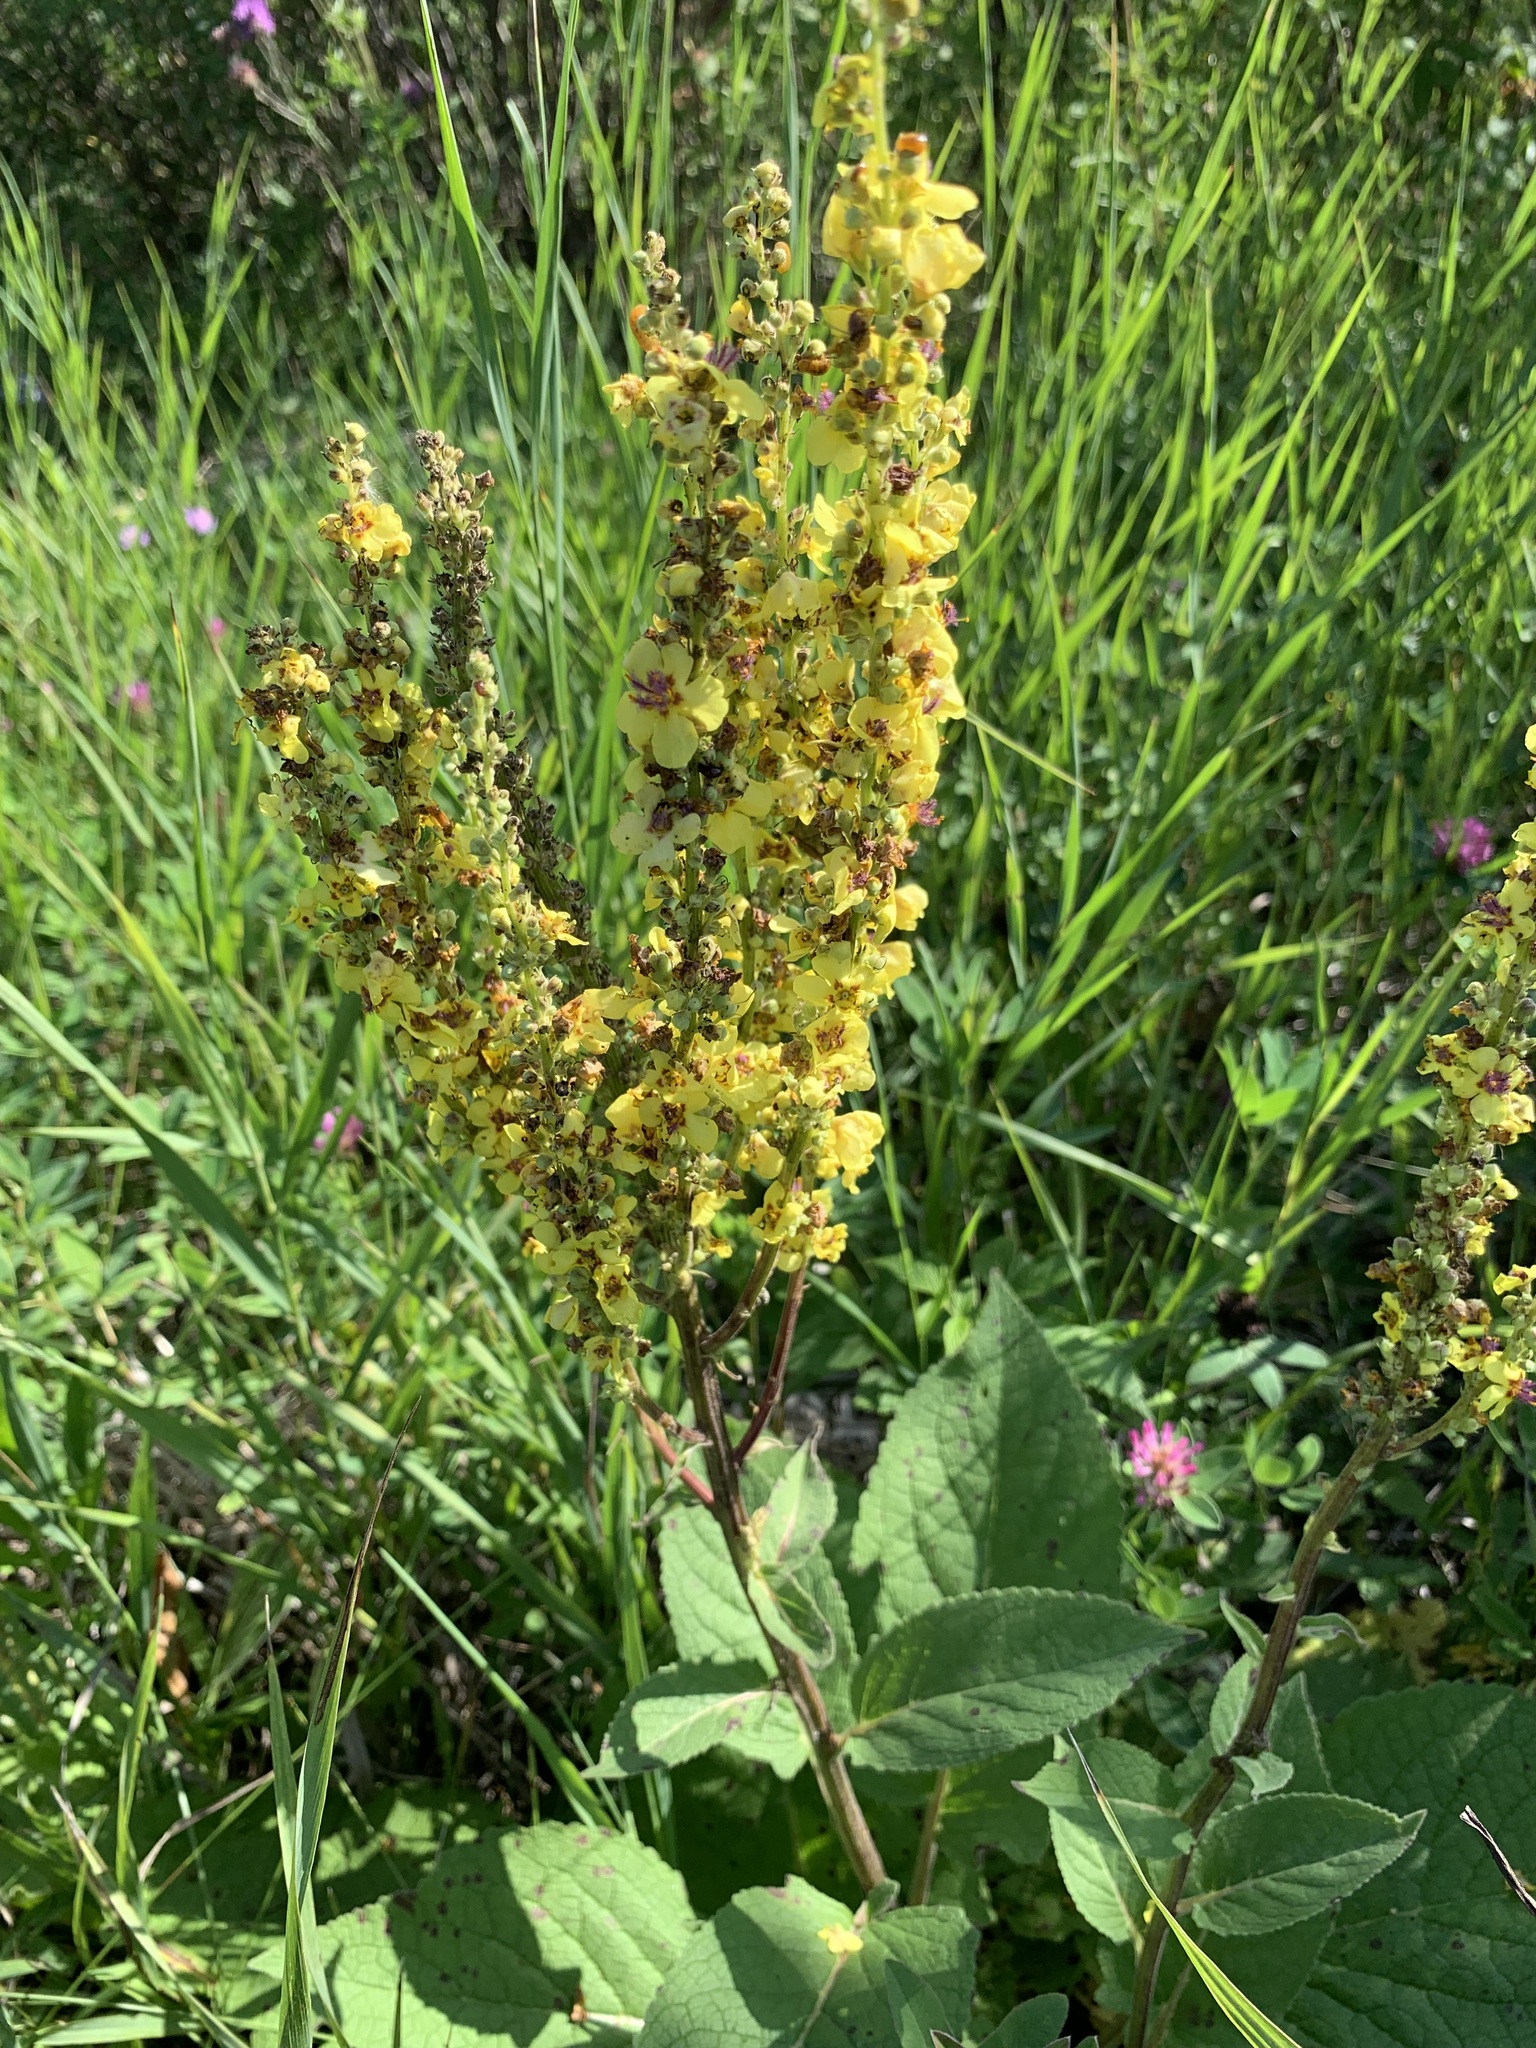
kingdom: Plantae
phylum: Tracheophyta
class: Magnoliopsida
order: Lamiales
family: Scrophulariaceae
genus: Verbascum
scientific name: Verbascum nigrum
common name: Dark mullein
